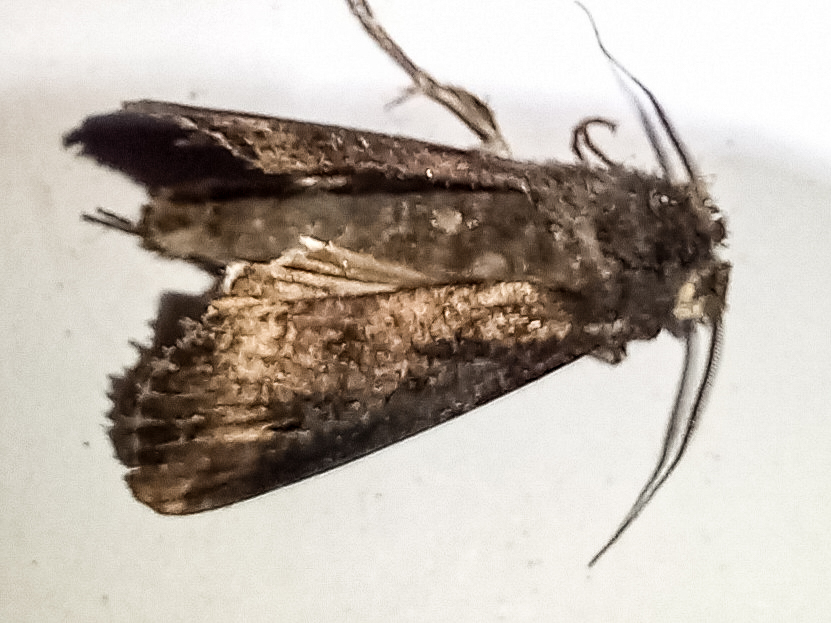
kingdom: Animalia
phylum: Arthropoda
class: Insecta
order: Lepidoptera
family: Noctuidae
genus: Agrotis
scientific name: Agrotis ipsilon
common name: Dark sword-grass
